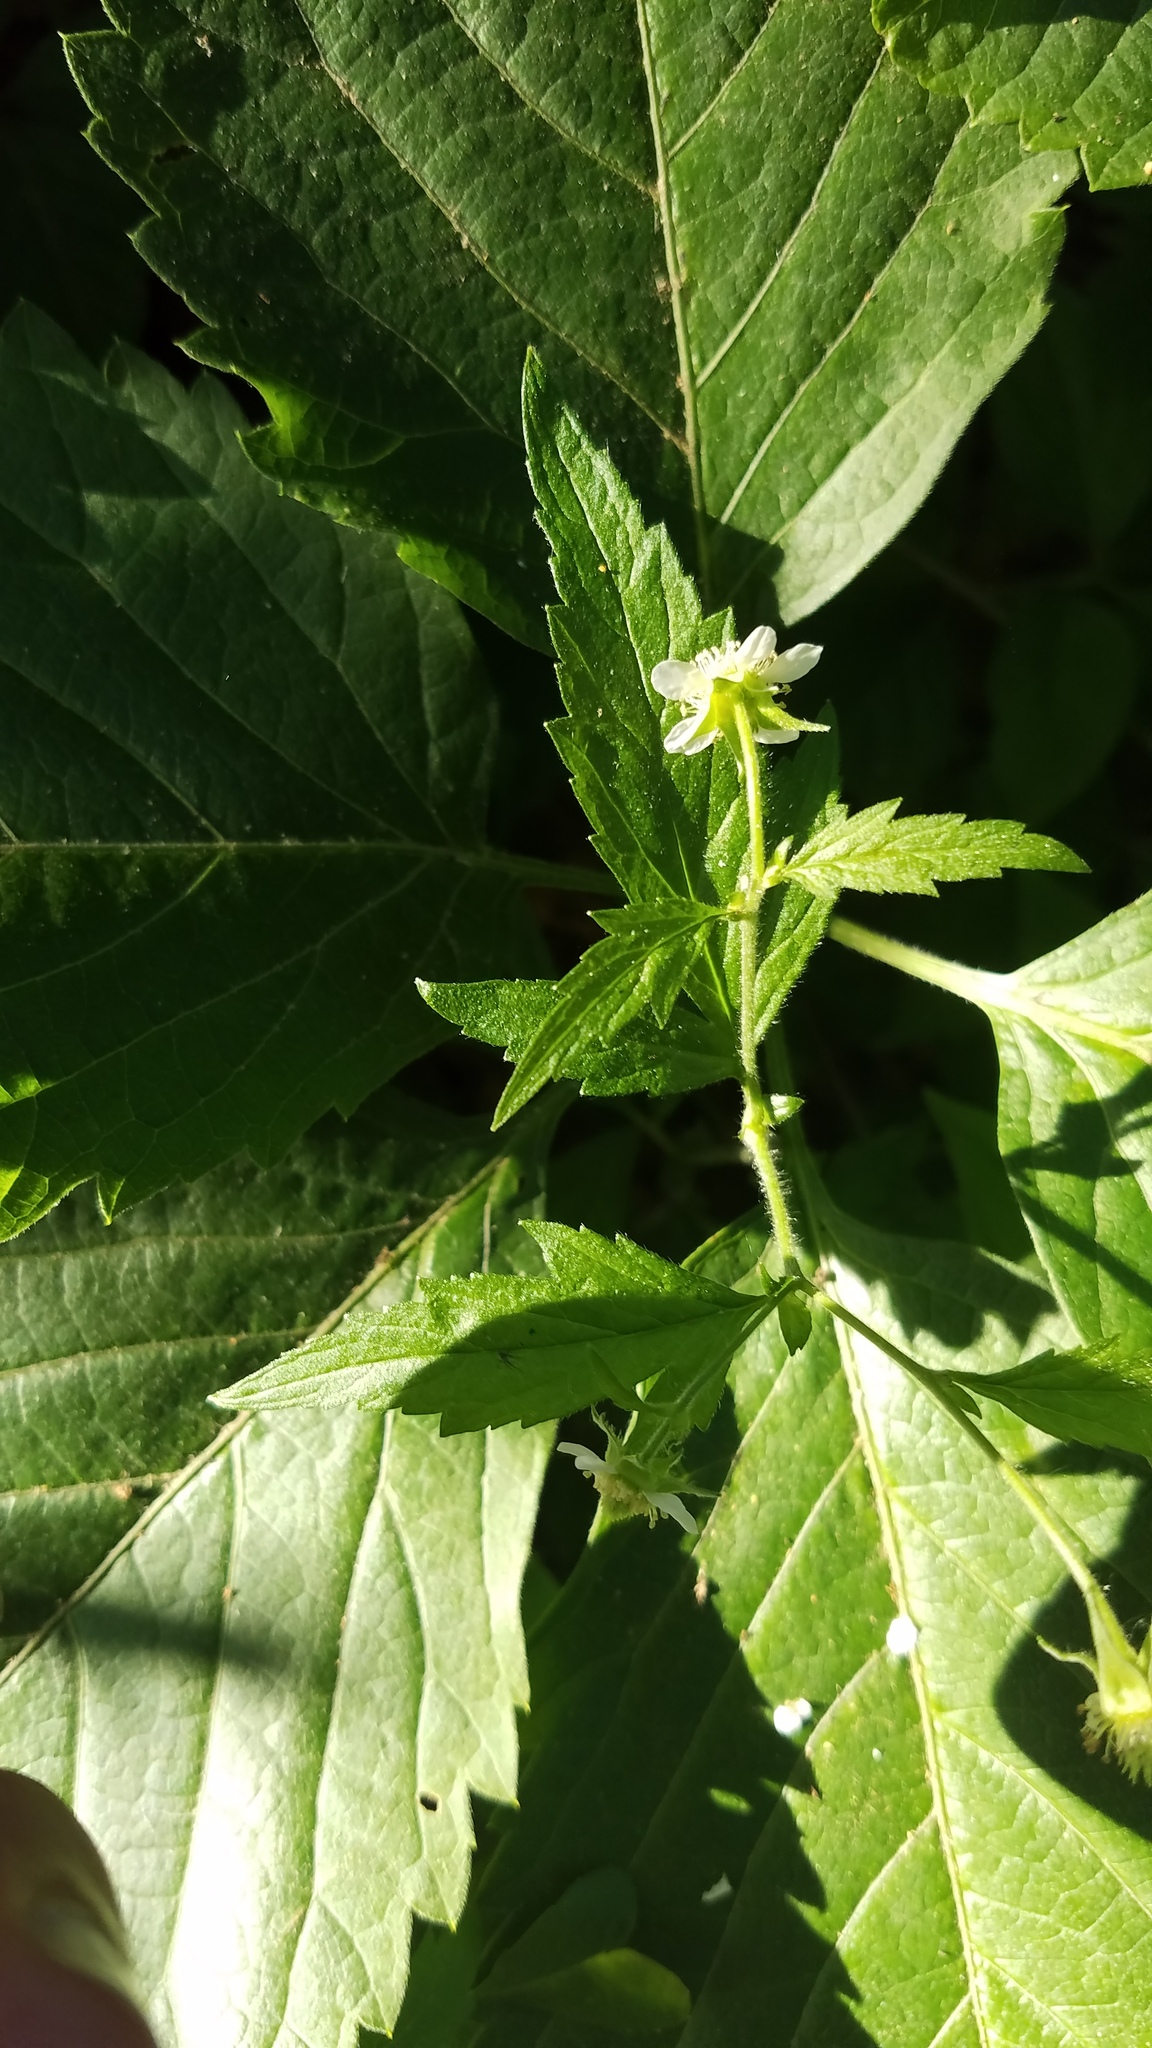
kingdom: Plantae
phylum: Tracheophyta
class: Magnoliopsida
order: Rosales
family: Rosaceae
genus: Geum
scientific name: Geum canadense
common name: White avens
